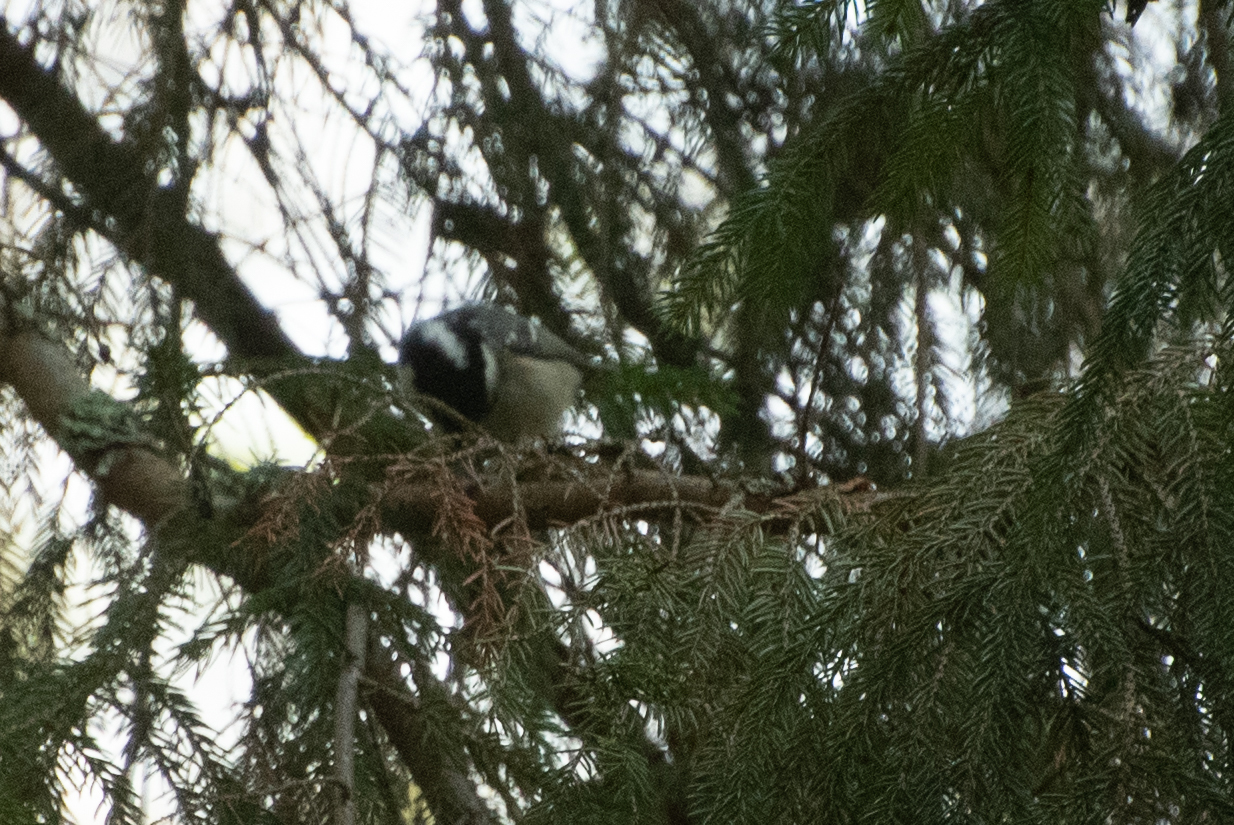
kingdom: Animalia
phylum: Chordata
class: Aves
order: Passeriformes
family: Paridae
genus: Periparus
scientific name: Periparus ater
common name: Coal tit
